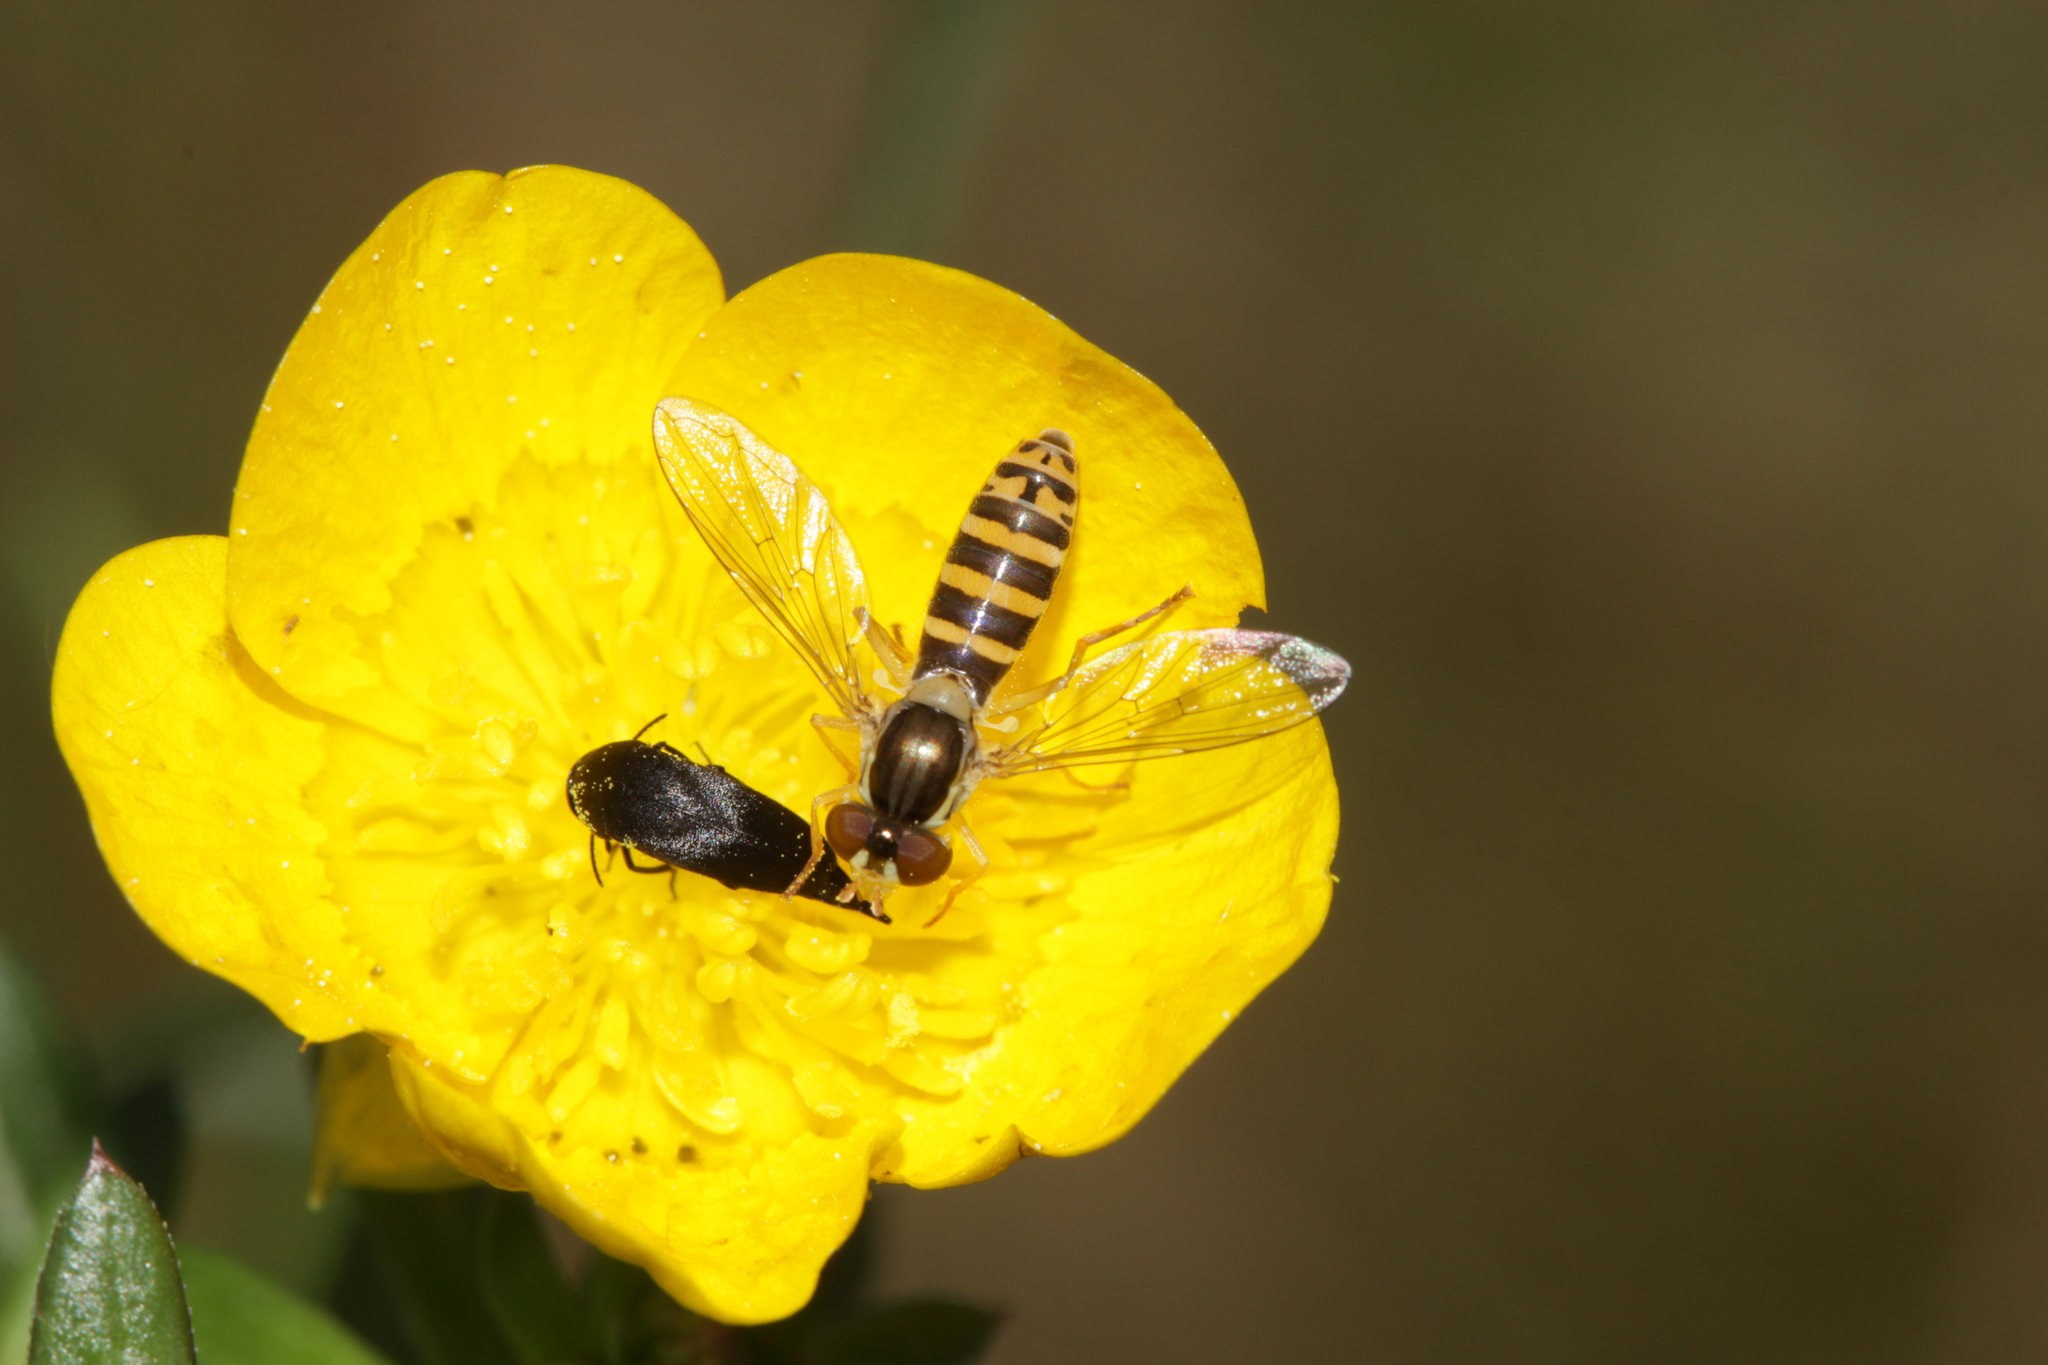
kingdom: Animalia
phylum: Arthropoda
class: Insecta
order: Diptera
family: Syrphidae
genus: Sphaerophoria
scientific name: Sphaerophoria
